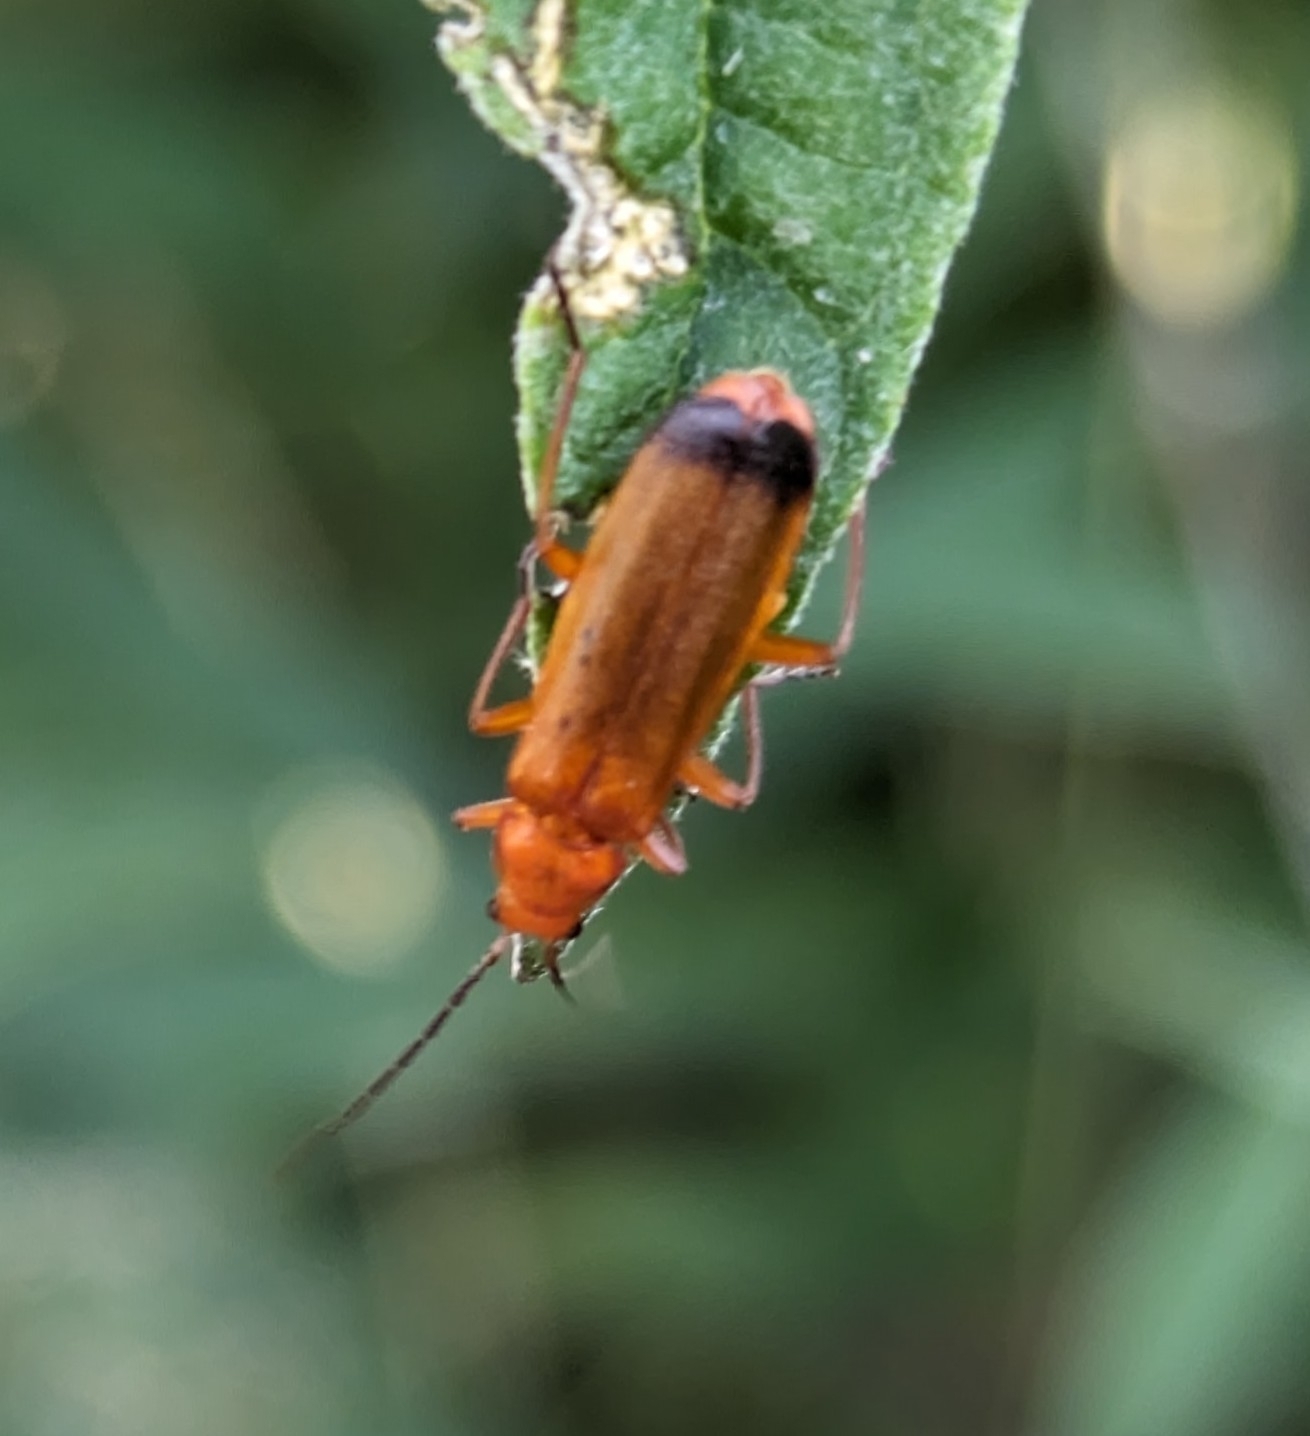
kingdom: Animalia
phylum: Arthropoda
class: Insecta
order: Coleoptera
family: Cantharidae
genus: Rhagonycha
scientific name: Rhagonycha fulva
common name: Common red soldier beetle
